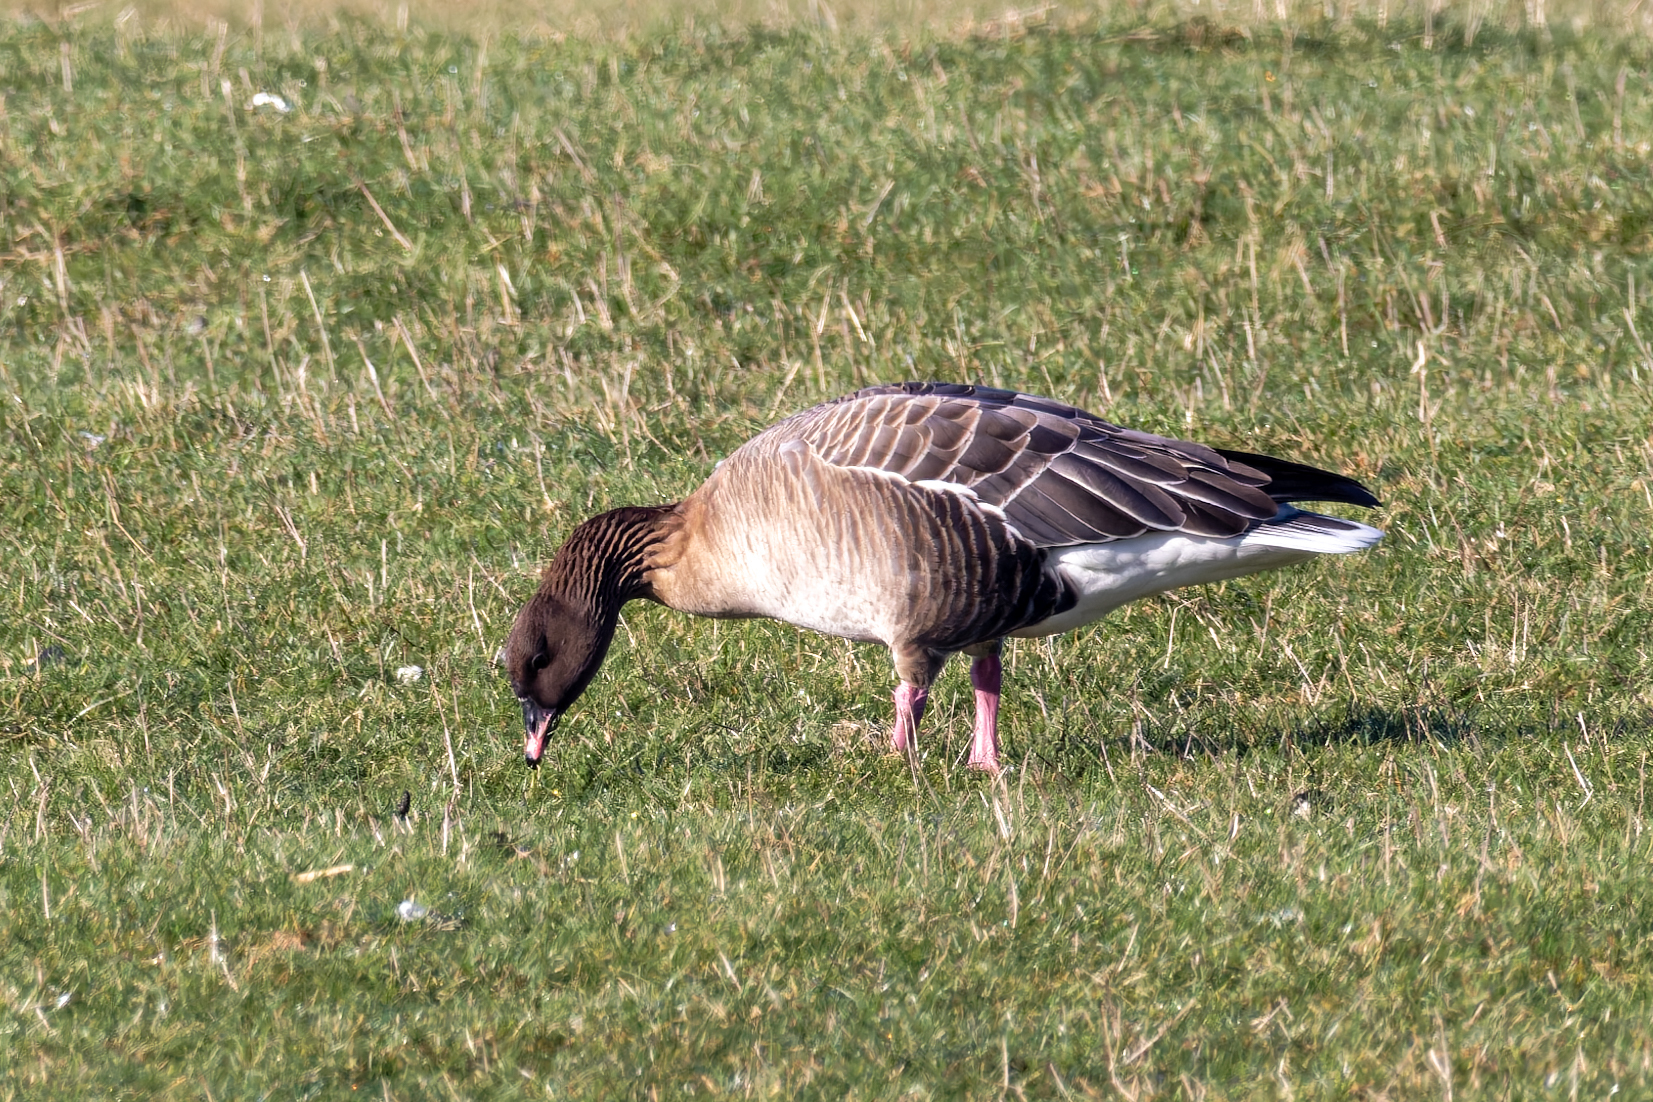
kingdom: Animalia
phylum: Chordata
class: Aves
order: Anseriformes
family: Anatidae
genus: Anser
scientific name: Anser brachyrhynchus
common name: Pink-footed goose
